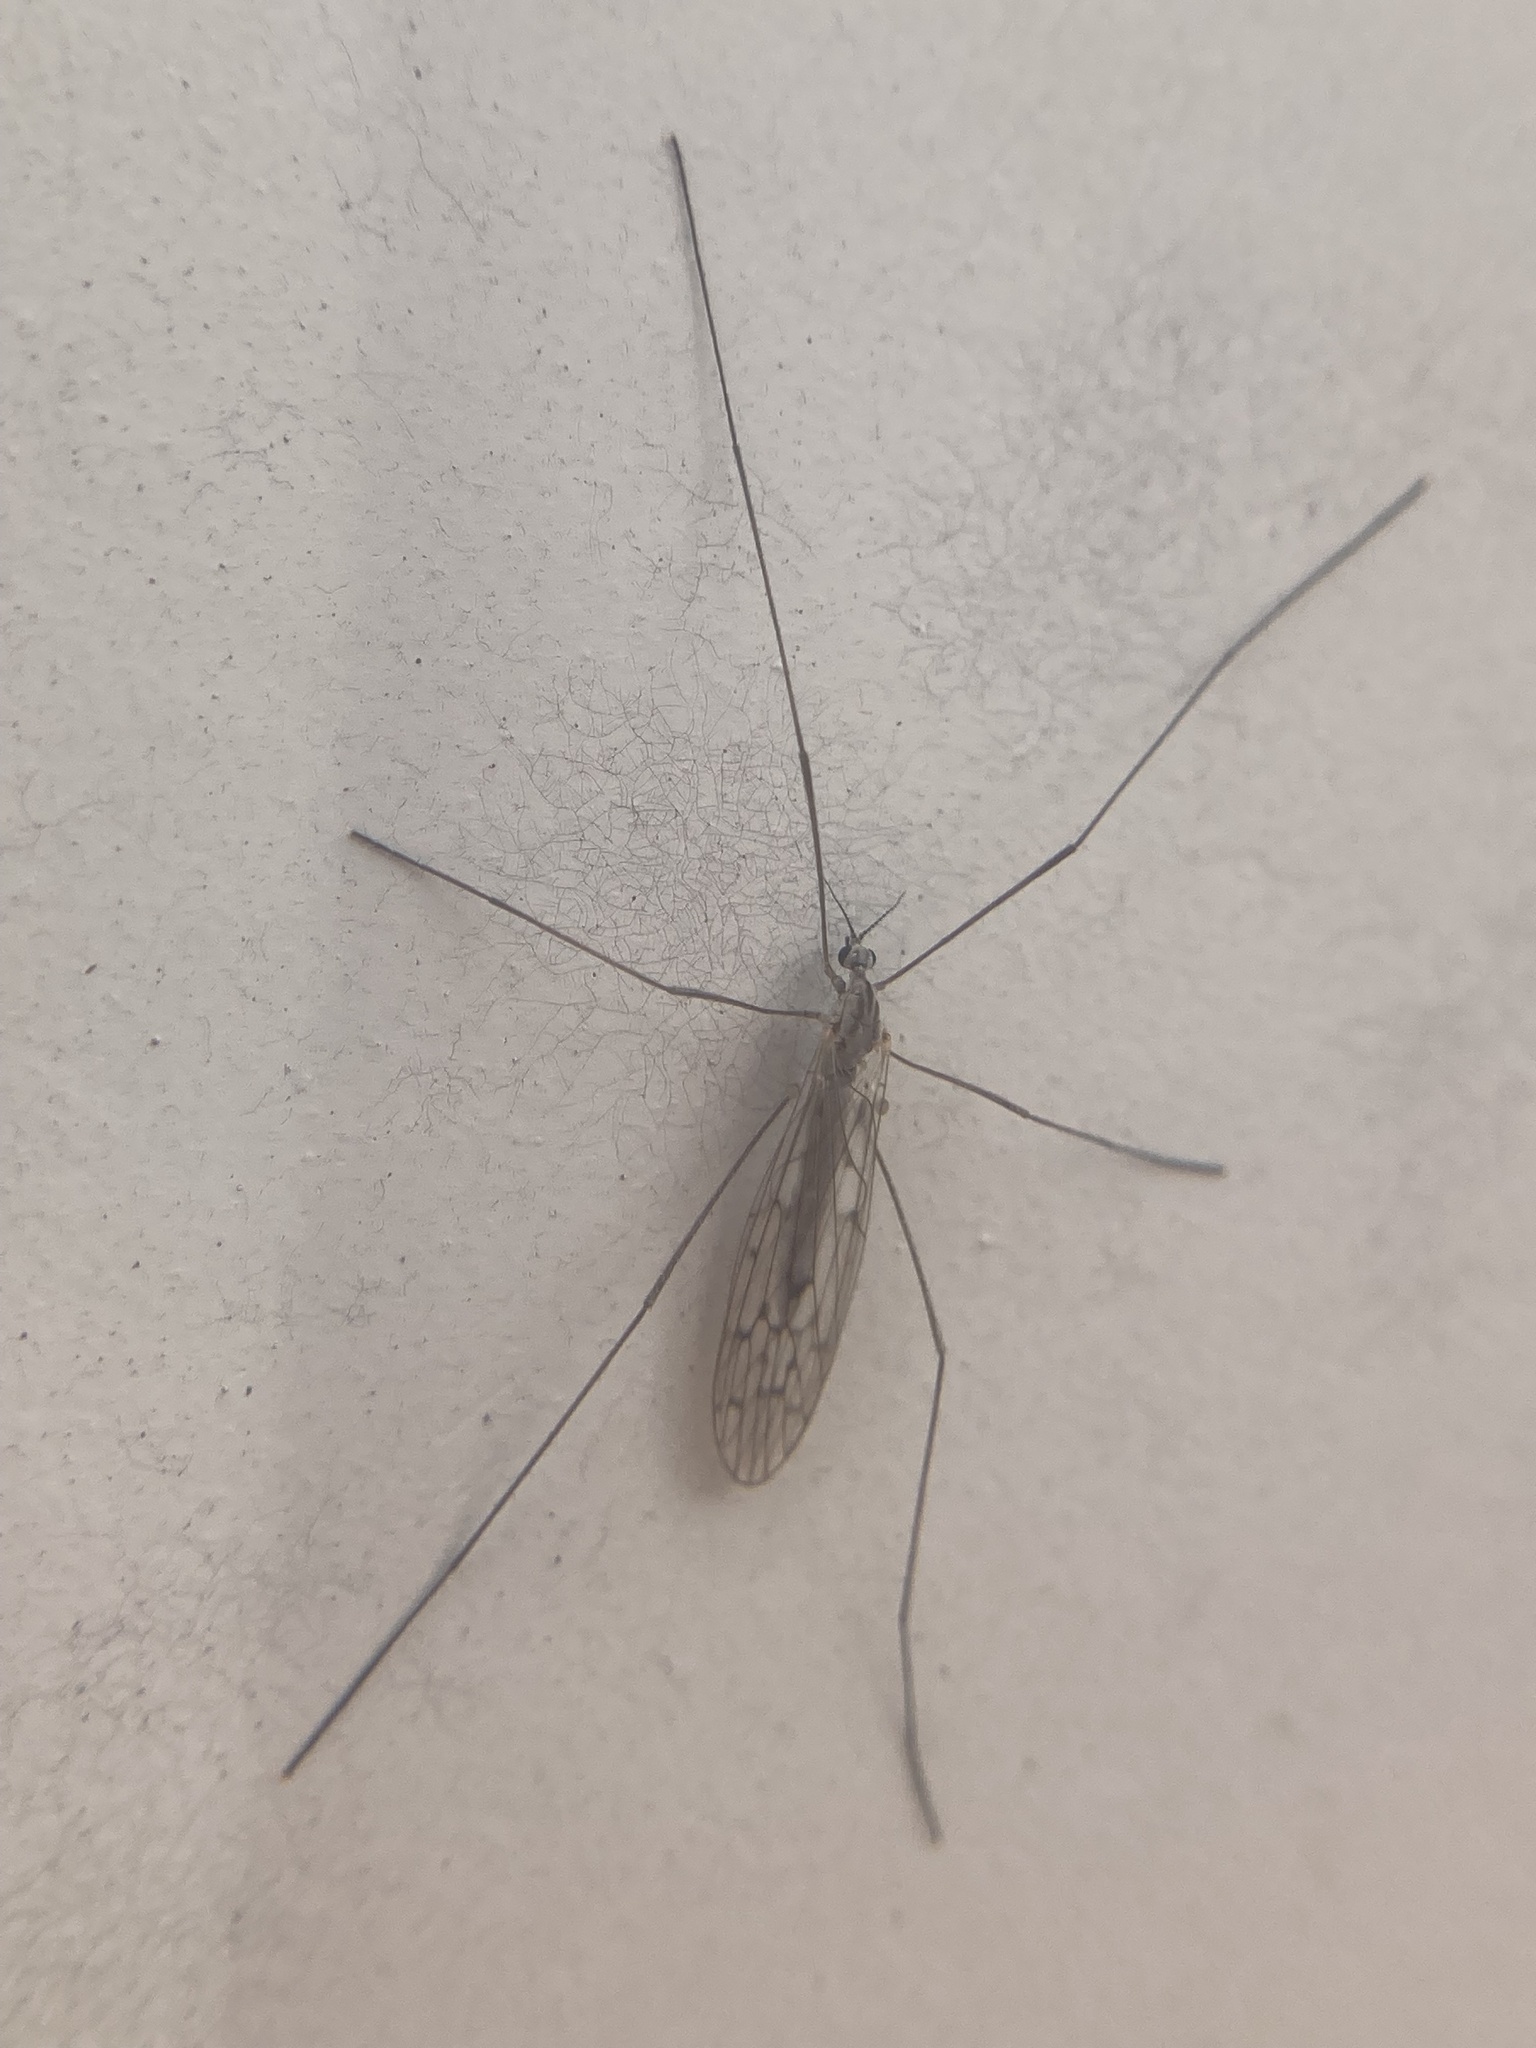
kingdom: Animalia
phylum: Arthropoda
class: Insecta
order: Diptera
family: Limoniidae
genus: Symplecta
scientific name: Symplecta cana
